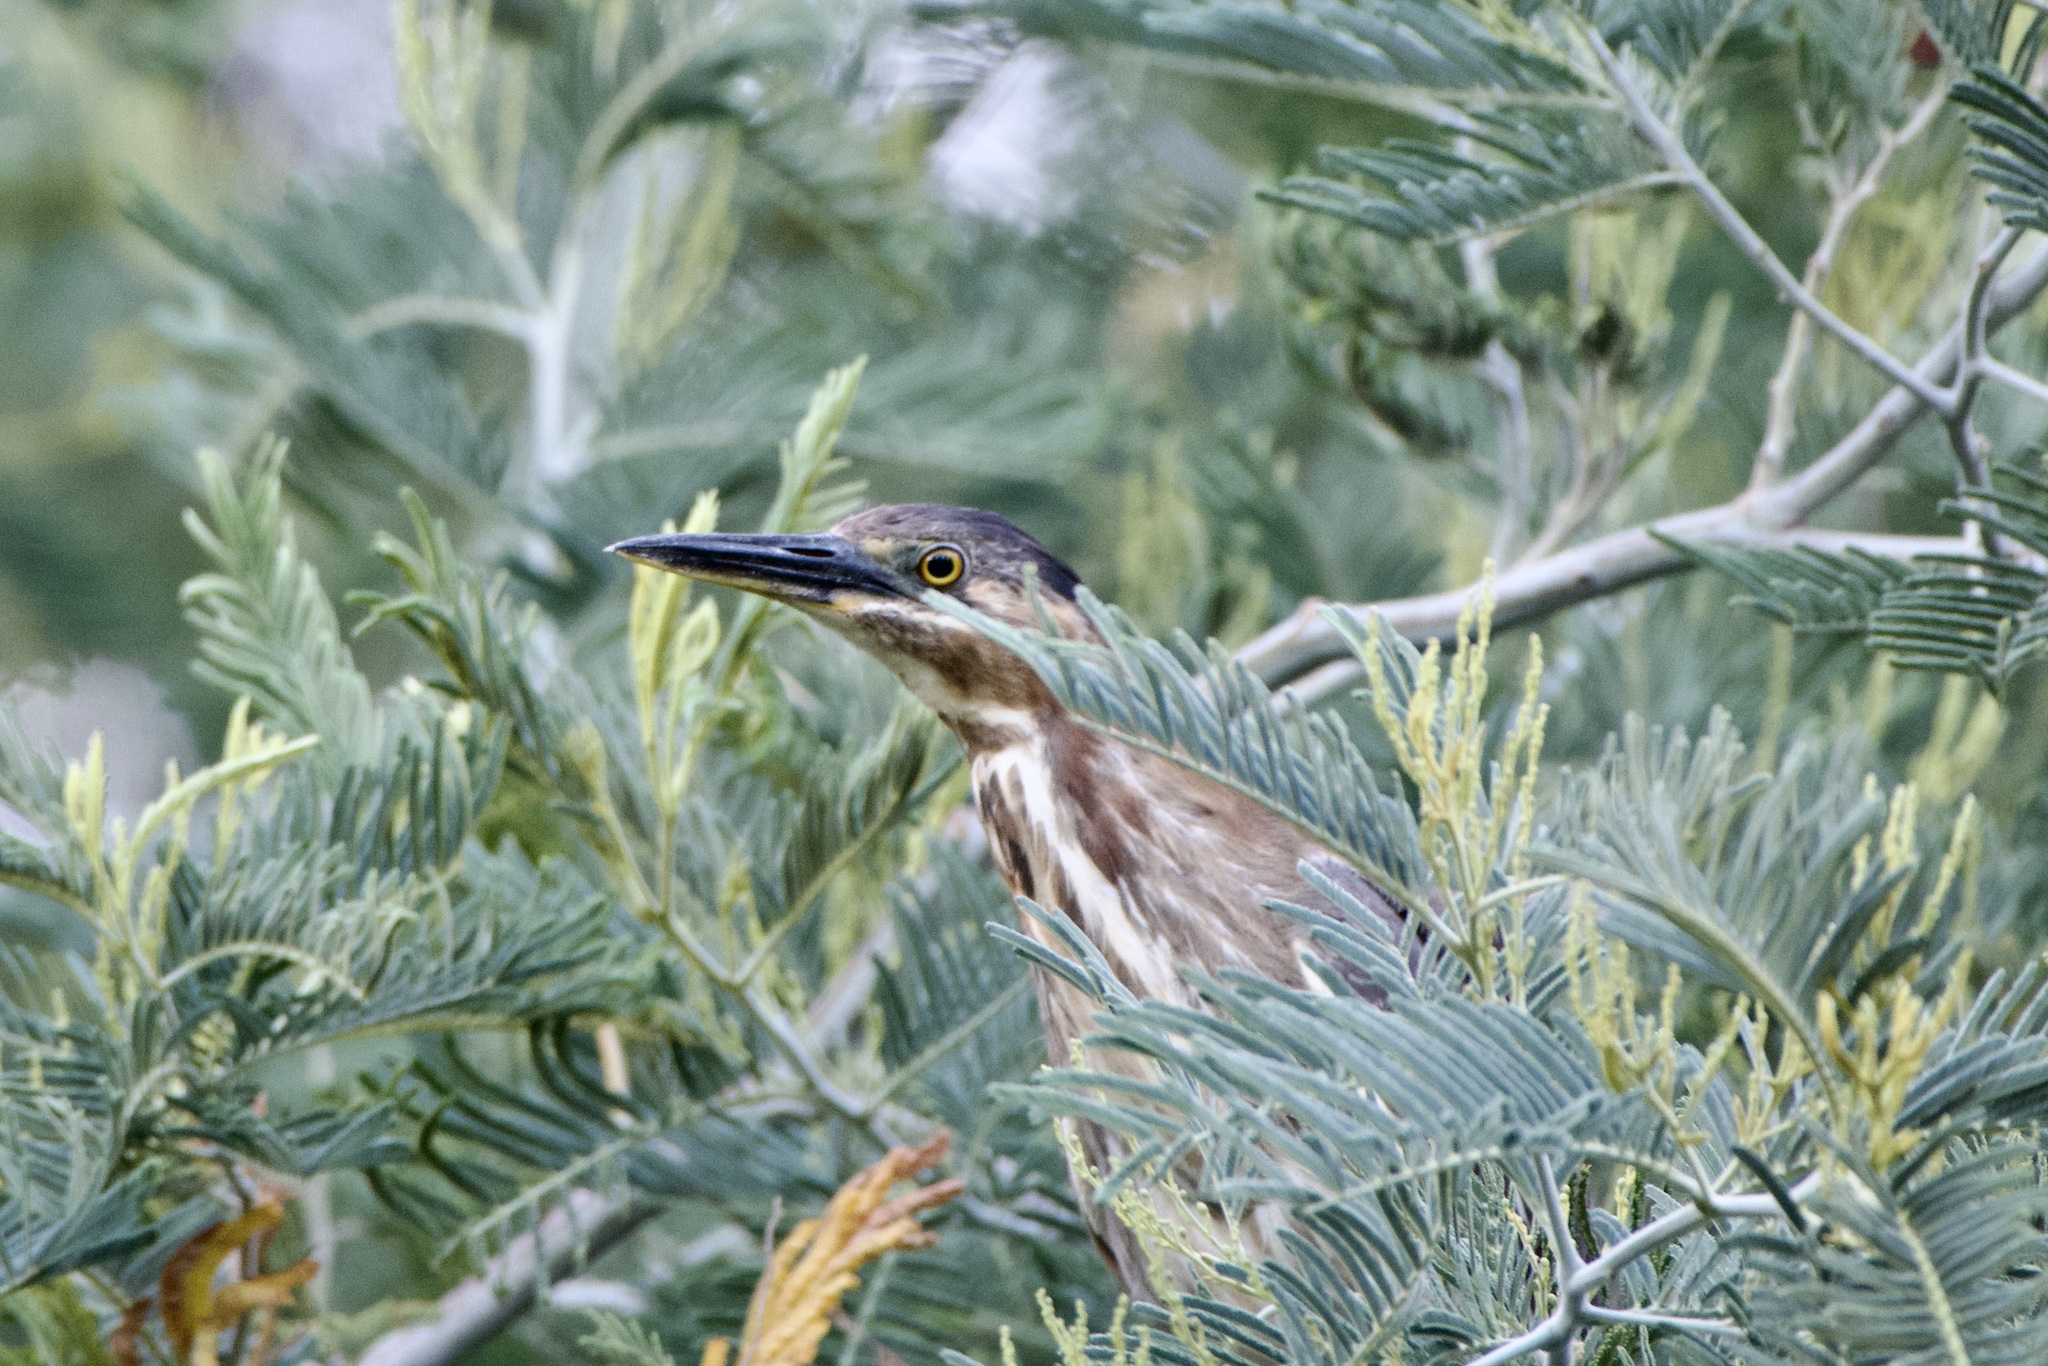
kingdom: Animalia
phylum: Chordata
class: Aves
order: Pelecaniformes
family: Ardeidae
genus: Butorides
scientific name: Butorides virescens
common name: Green heron
